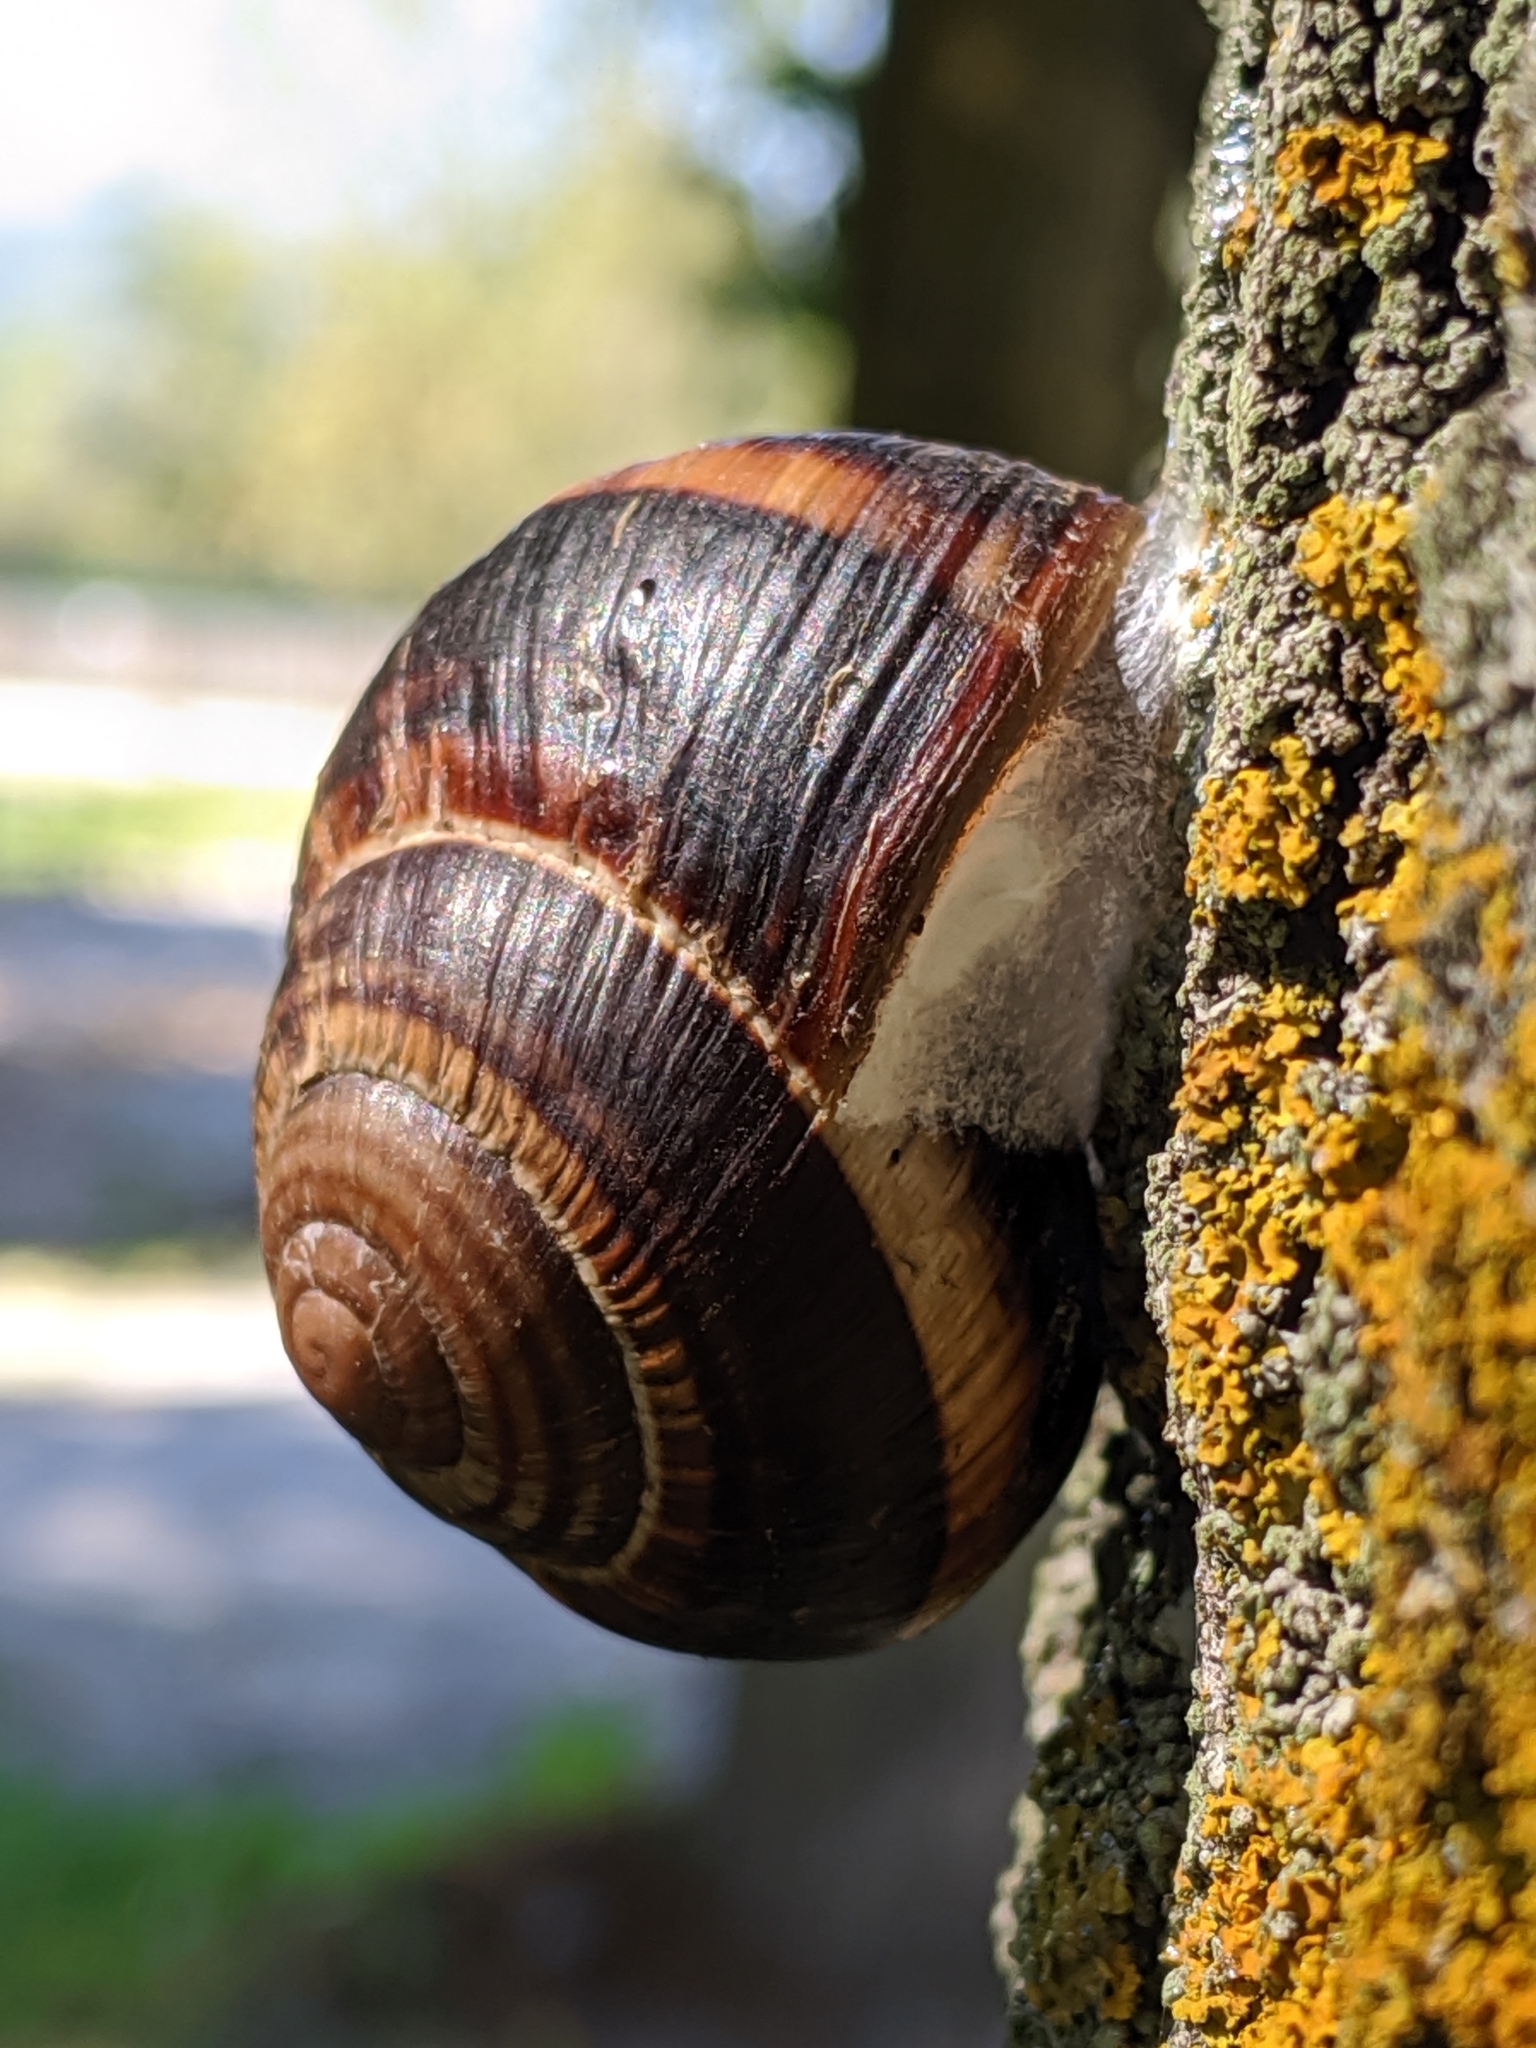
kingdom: Animalia
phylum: Mollusca
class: Gastropoda
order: Stylommatophora
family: Helicidae
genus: Helix
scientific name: Helix lucorum
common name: Turkish snail
